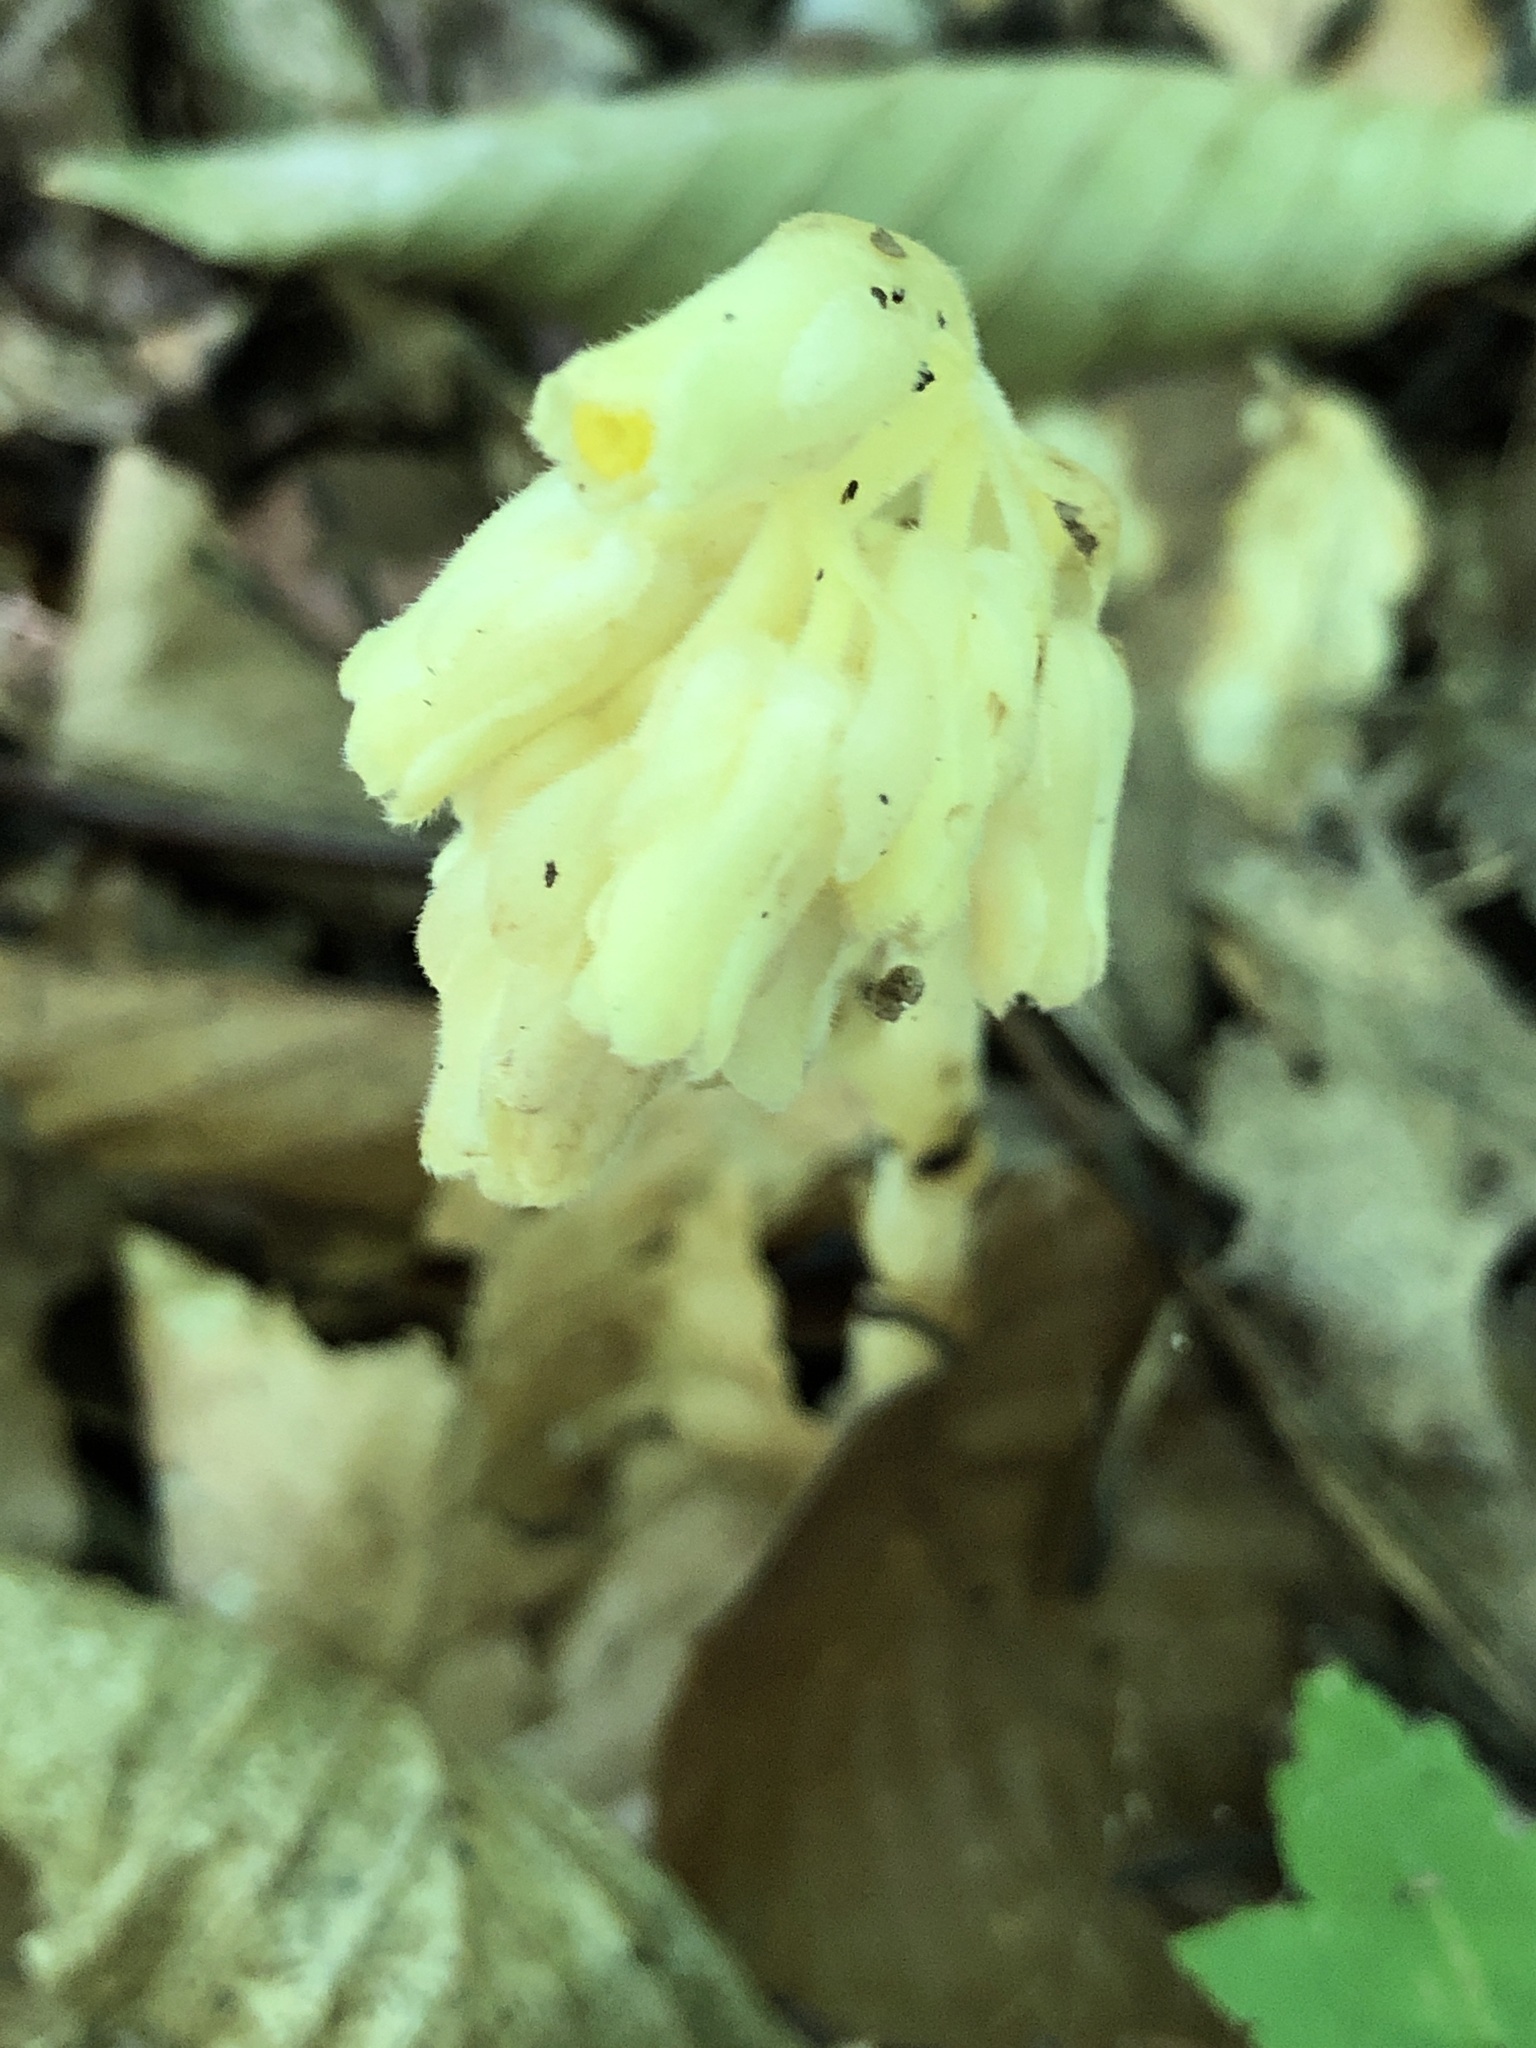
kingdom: Plantae
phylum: Tracheophyta
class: Magnoliopsida
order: Ericales
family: Ericaceae
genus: Hypopitys
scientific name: Hypopitys monotropa
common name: Yellow bird's-nest
